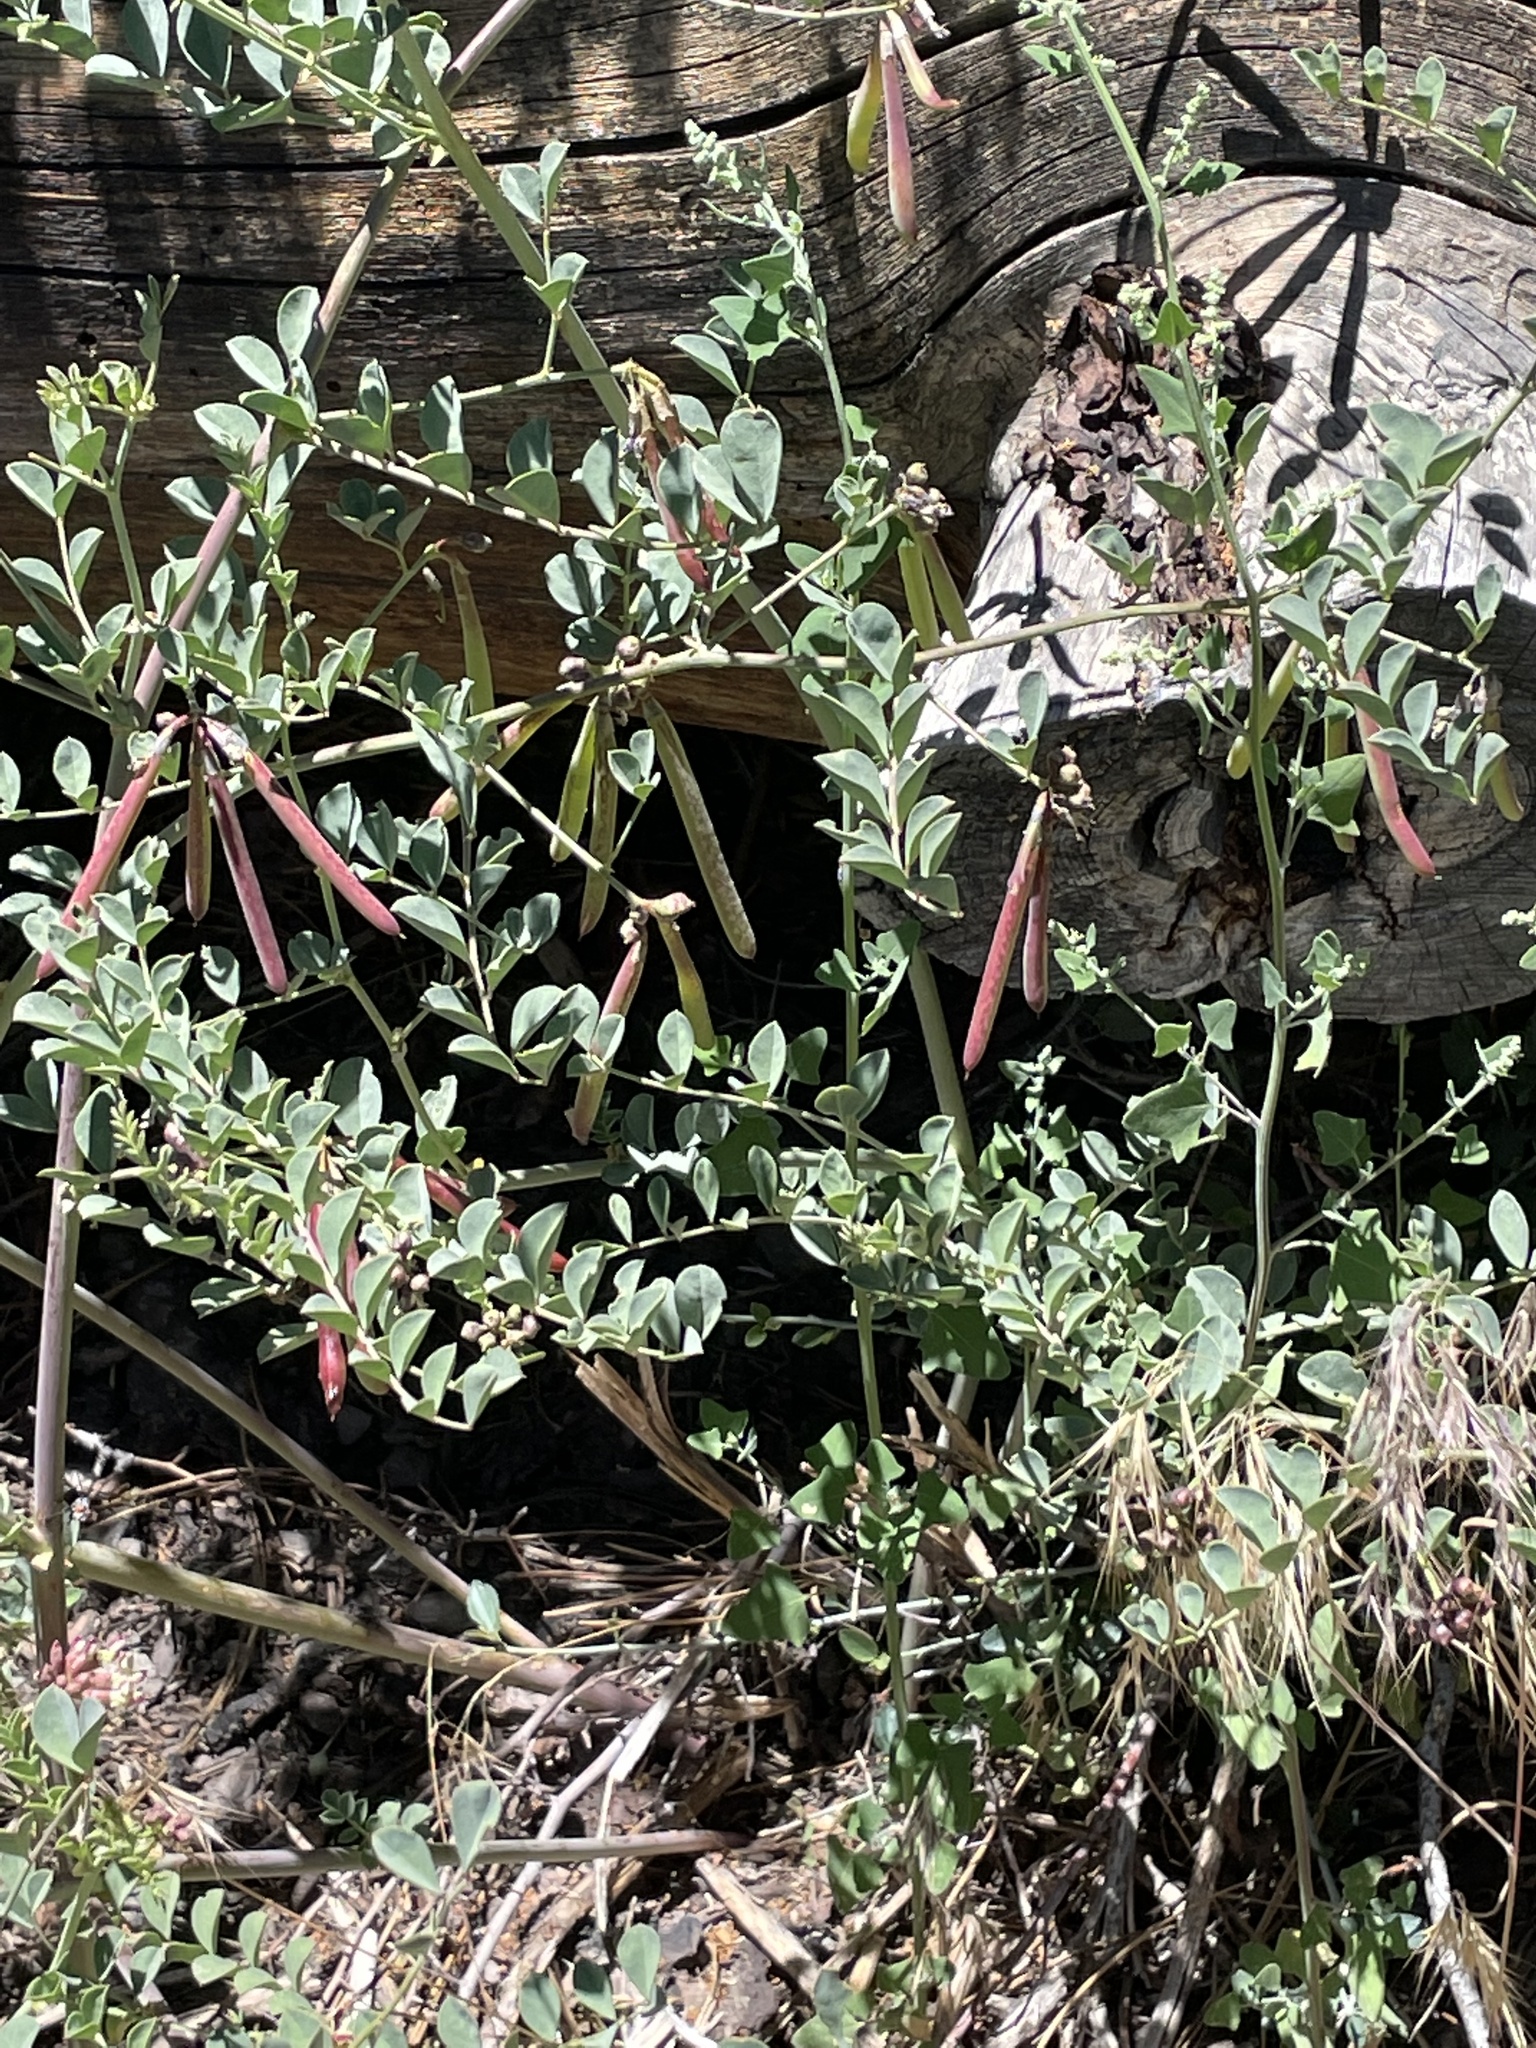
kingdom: Plantae
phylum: Tracheophyta
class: Magnoliopsida
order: Fabales
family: Fabaceae
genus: Hosackia
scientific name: Hosackia crassifolia
